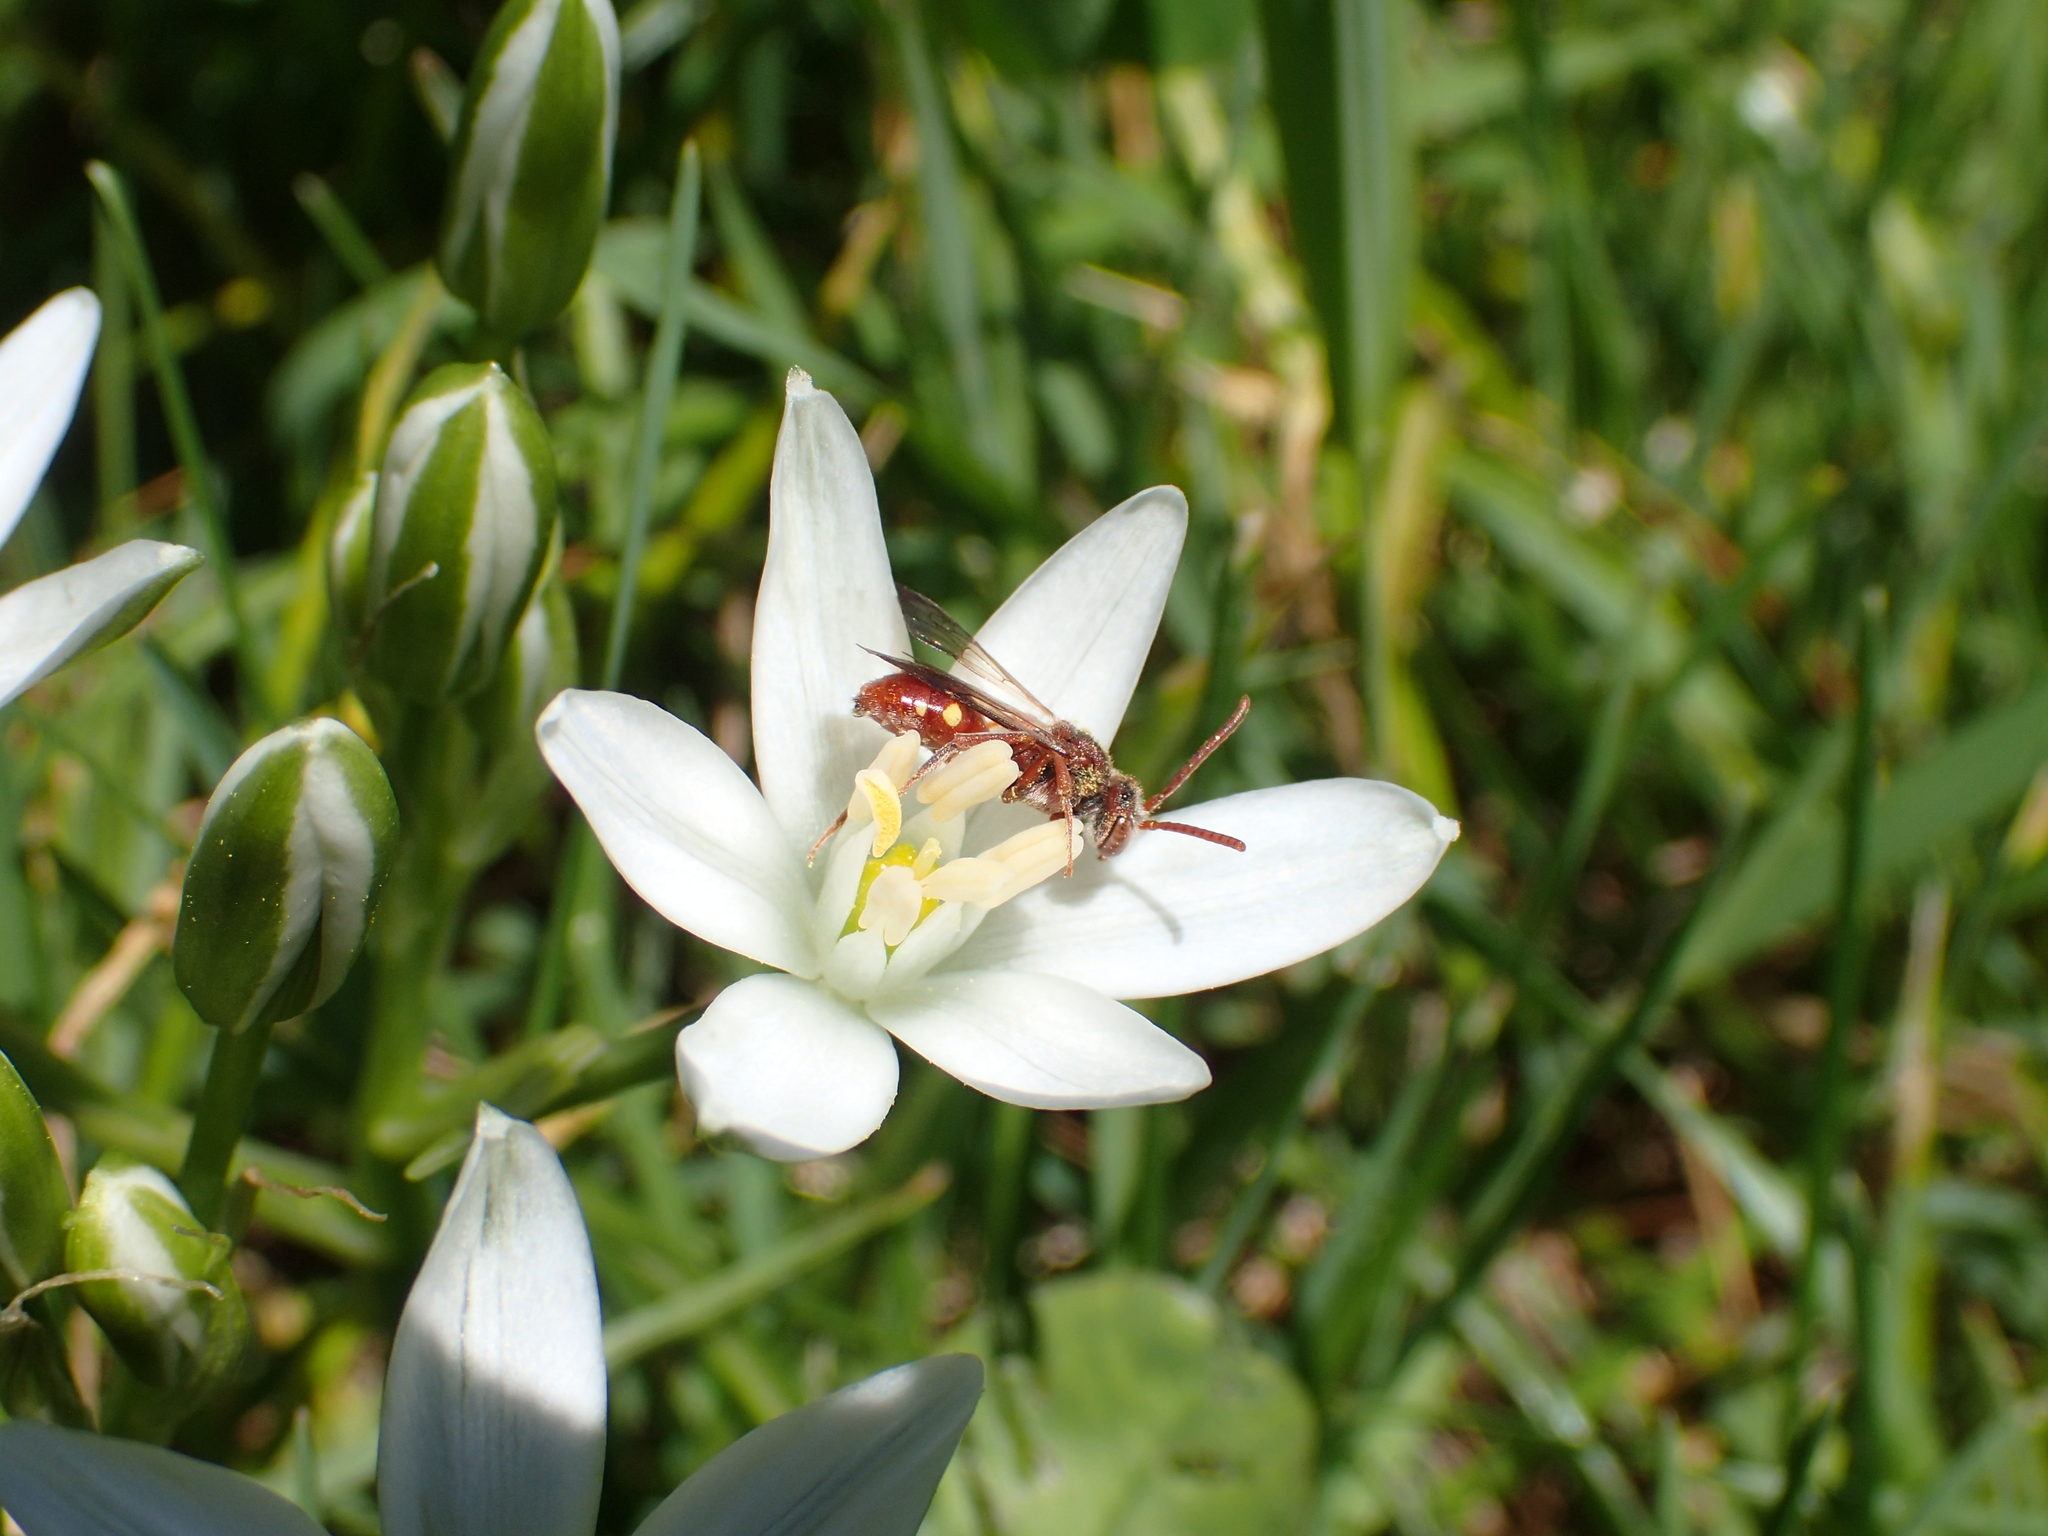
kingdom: Plantae
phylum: Tracheophyta
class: Liliopsida
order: Asparagales
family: Asparagaceae
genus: Ornithogalum
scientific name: Ornithogalum umbellatum
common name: Garden star-of-bethlehem
